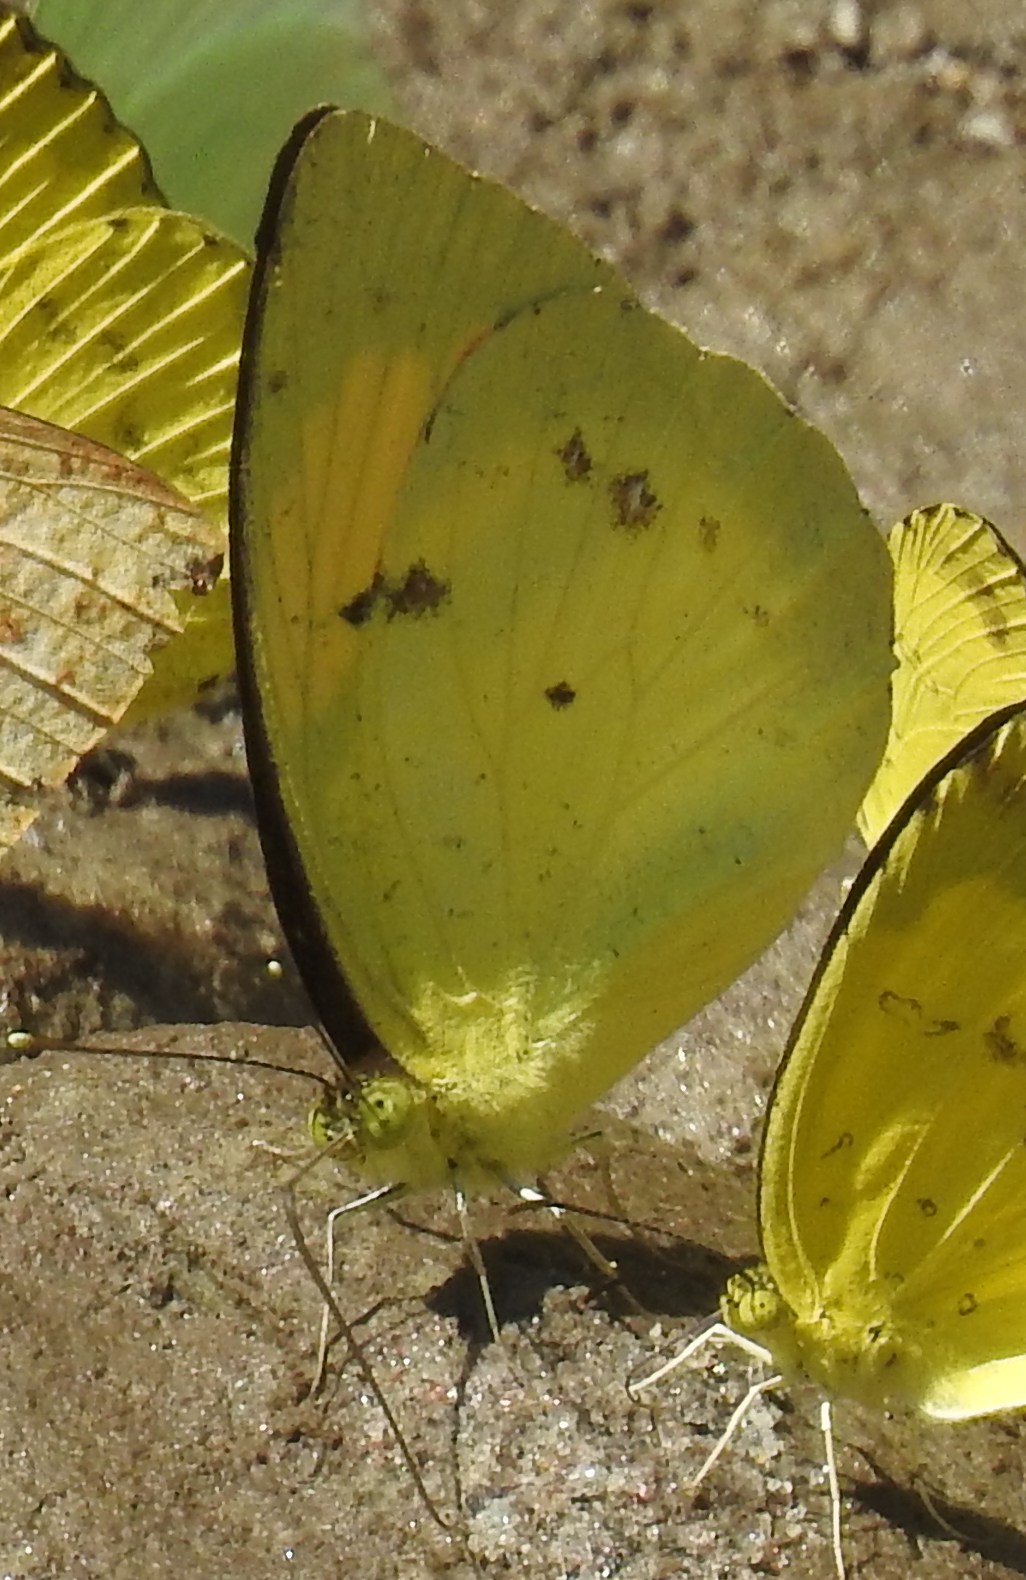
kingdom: Animalia
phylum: Arthropoda
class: Insecta
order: Lepidoptera
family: Pieridae
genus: Ixias
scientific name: Ixias pyrene
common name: Yellow orange tip
